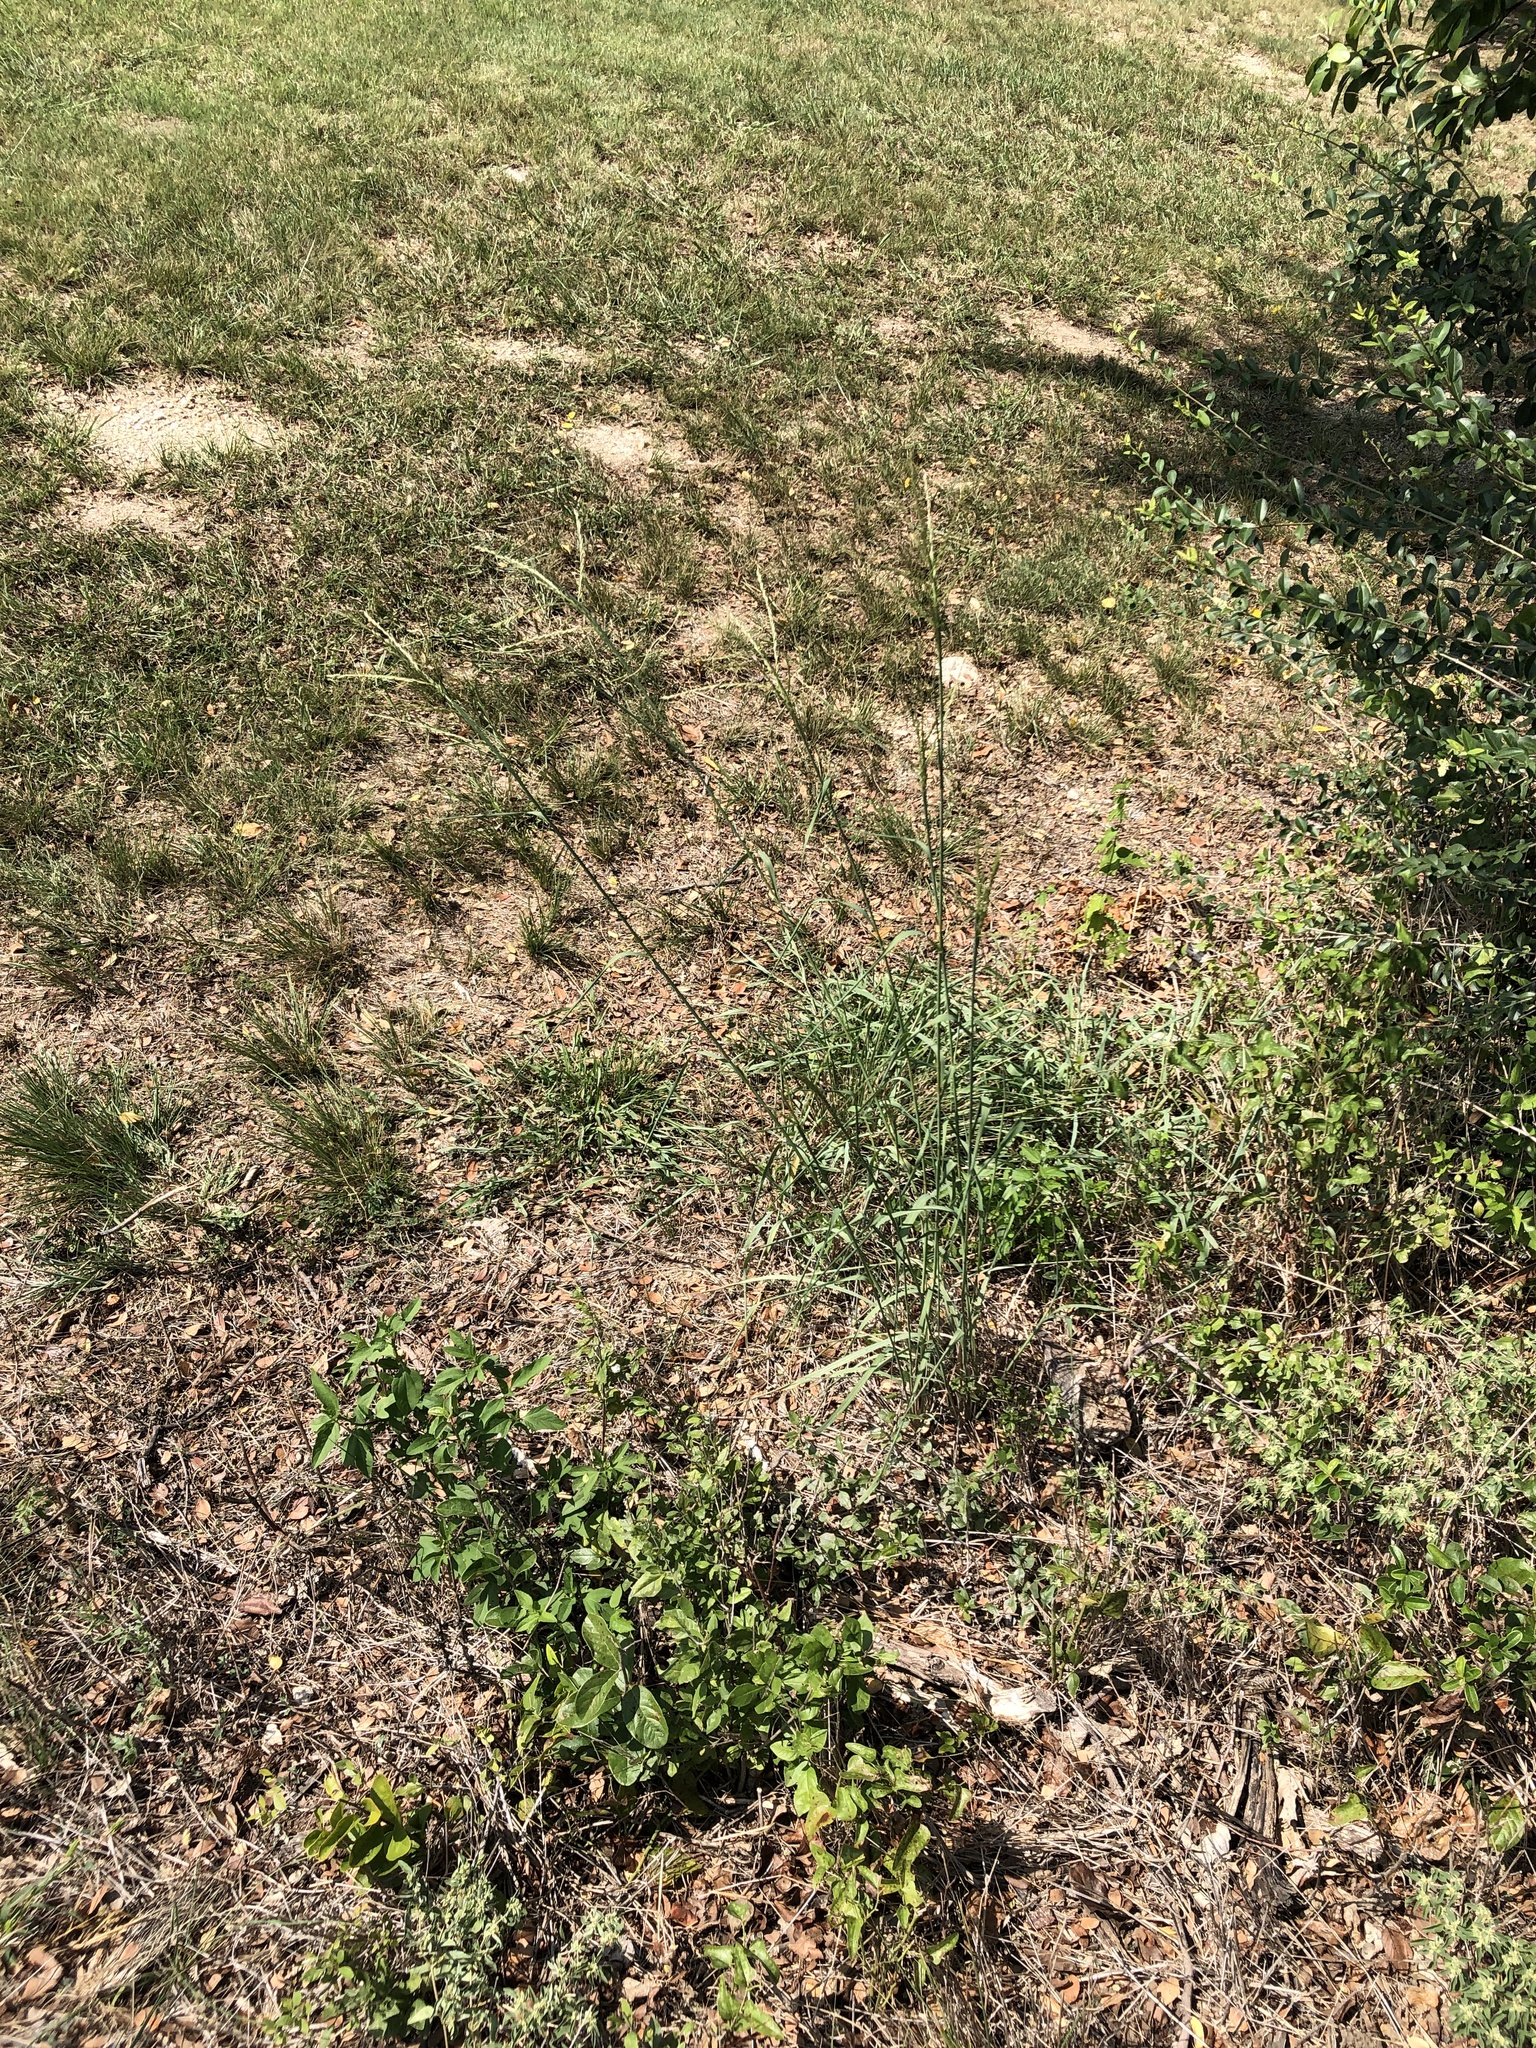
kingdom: Plantae
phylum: Tracheophyta
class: Liliopsida
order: Poales
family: Poaceae
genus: Disakisperma
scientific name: Disakisperma dubium
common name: Green sprangletop
